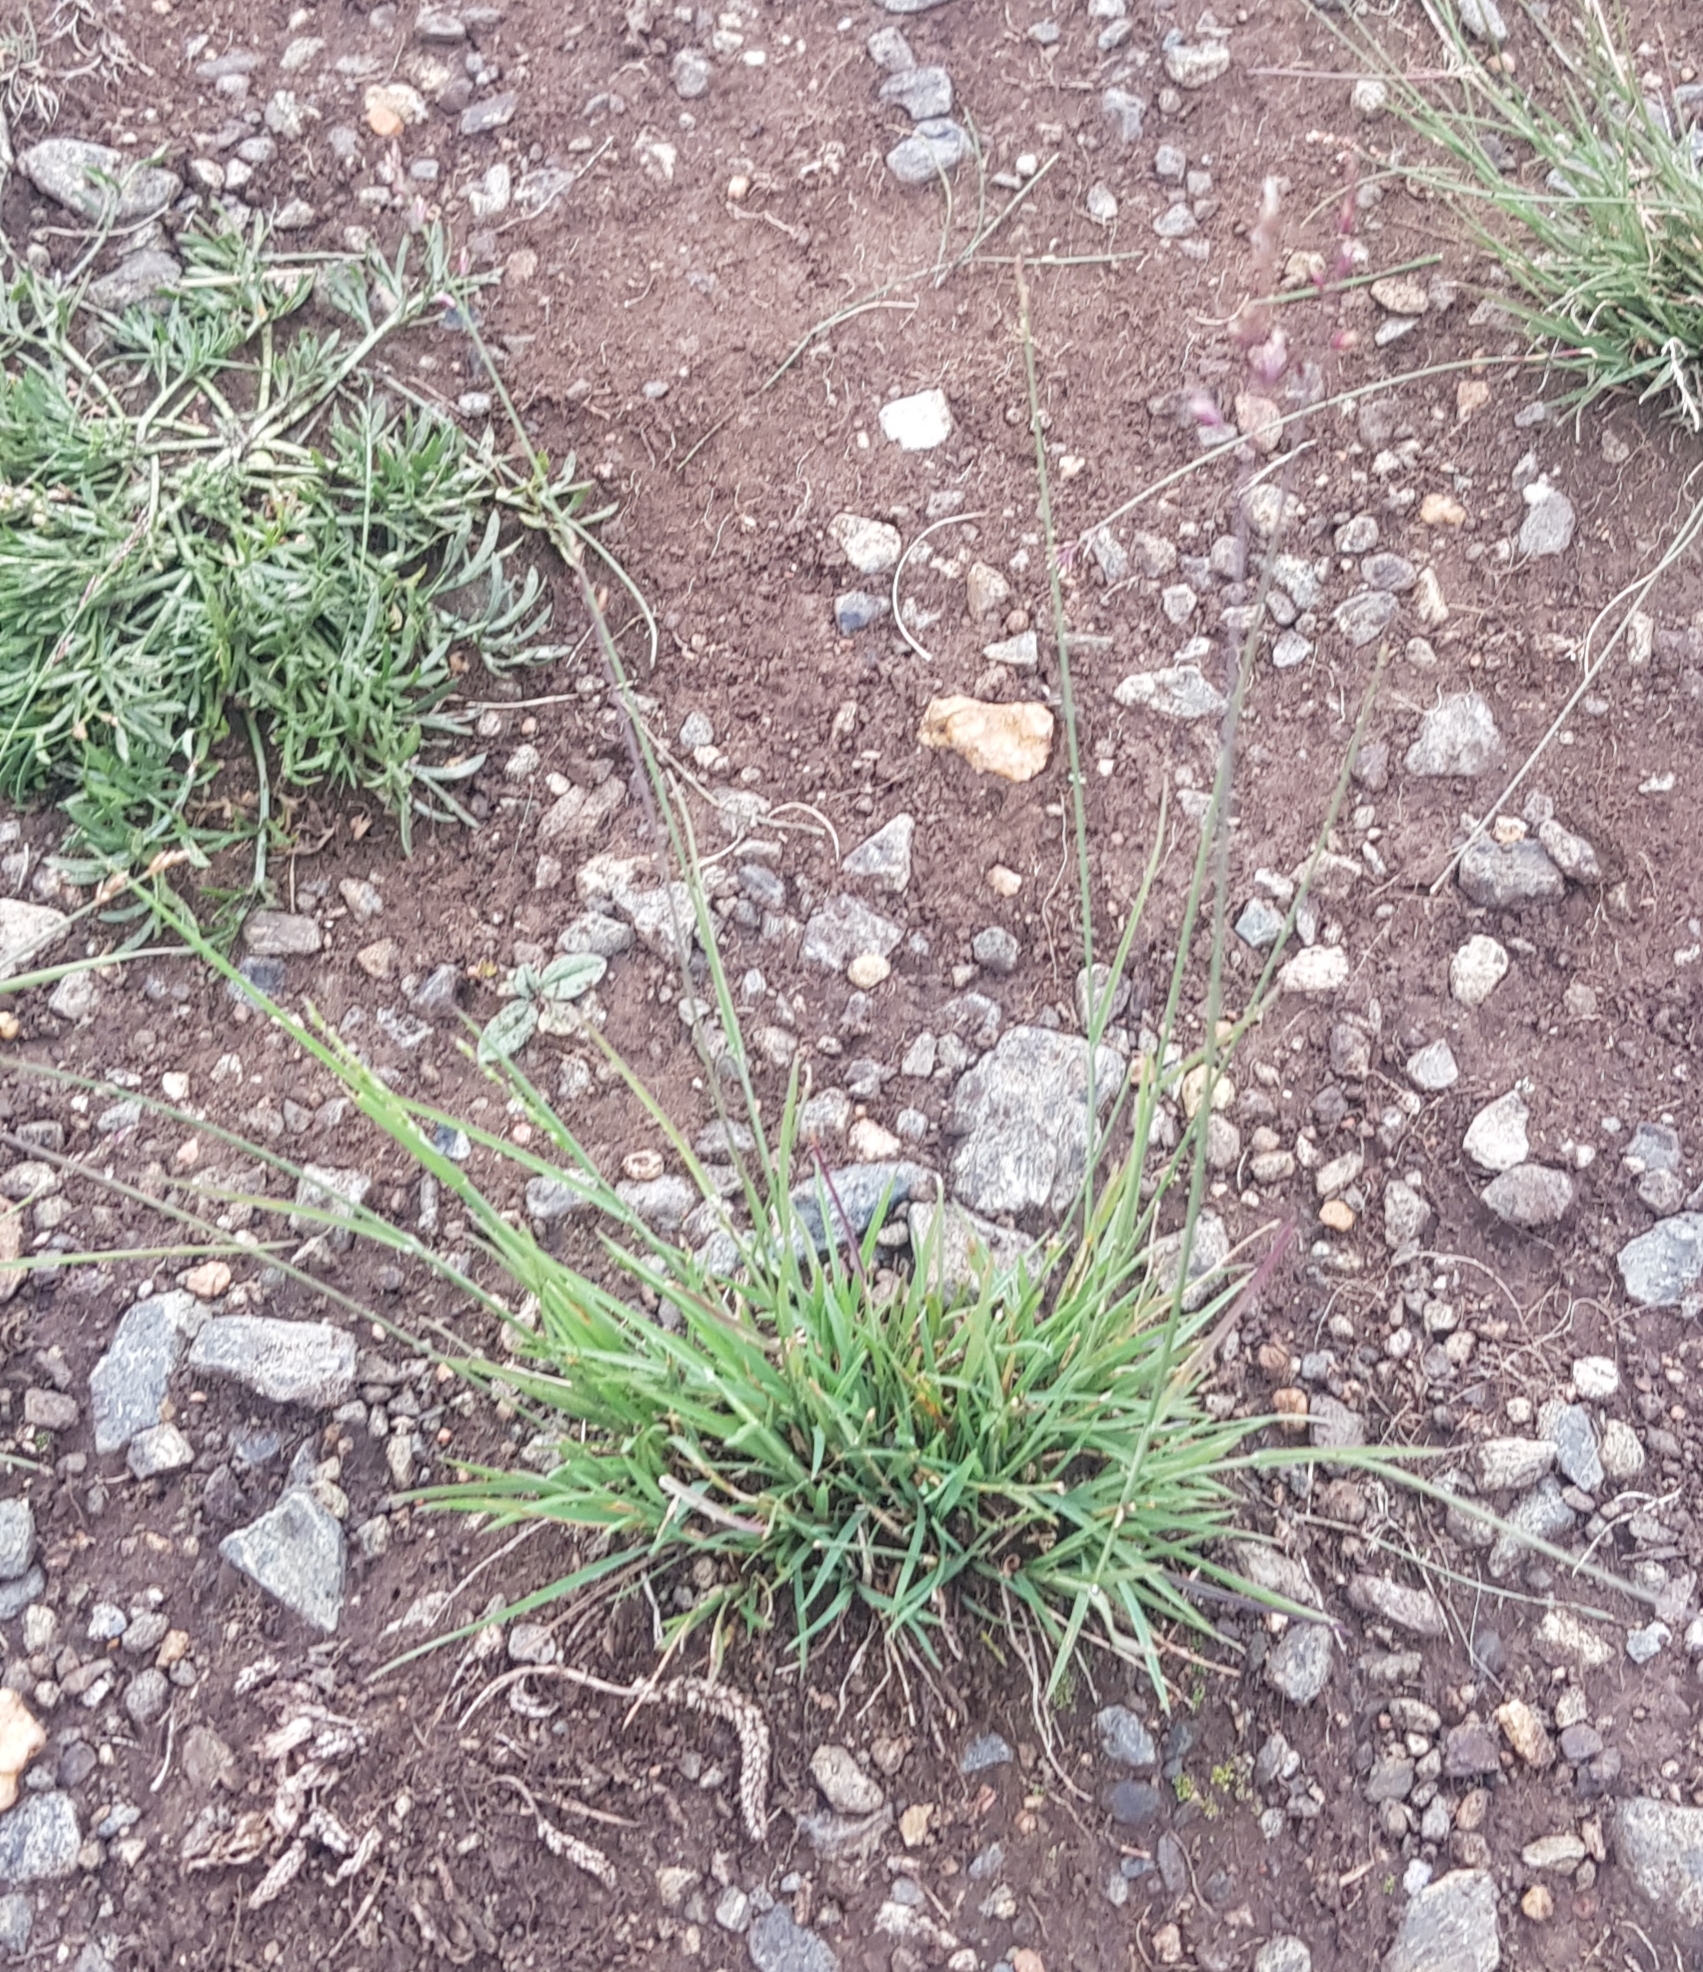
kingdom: Plantae
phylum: Tracheophyta
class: Liliopsida
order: Poales
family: Poaceae
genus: Cleistogenes
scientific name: Cleistogenes squarrosa
